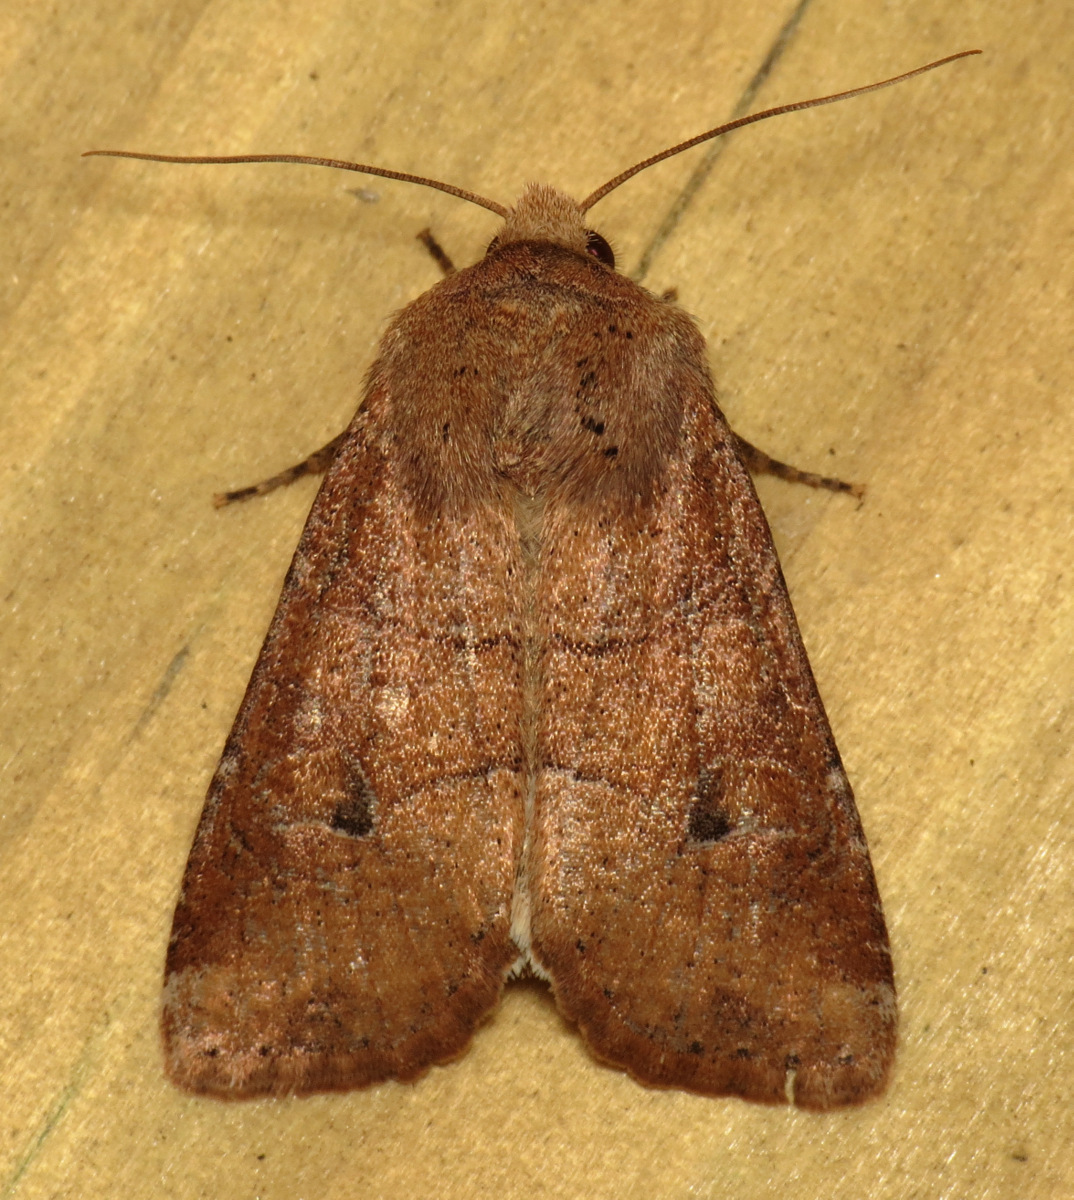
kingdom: Animalia
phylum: Arthropoda
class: Insecta
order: Lepidoptera
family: Noctuidae
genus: Crocigrapha
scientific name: Crocigrapha normani
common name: Norman's quaker
